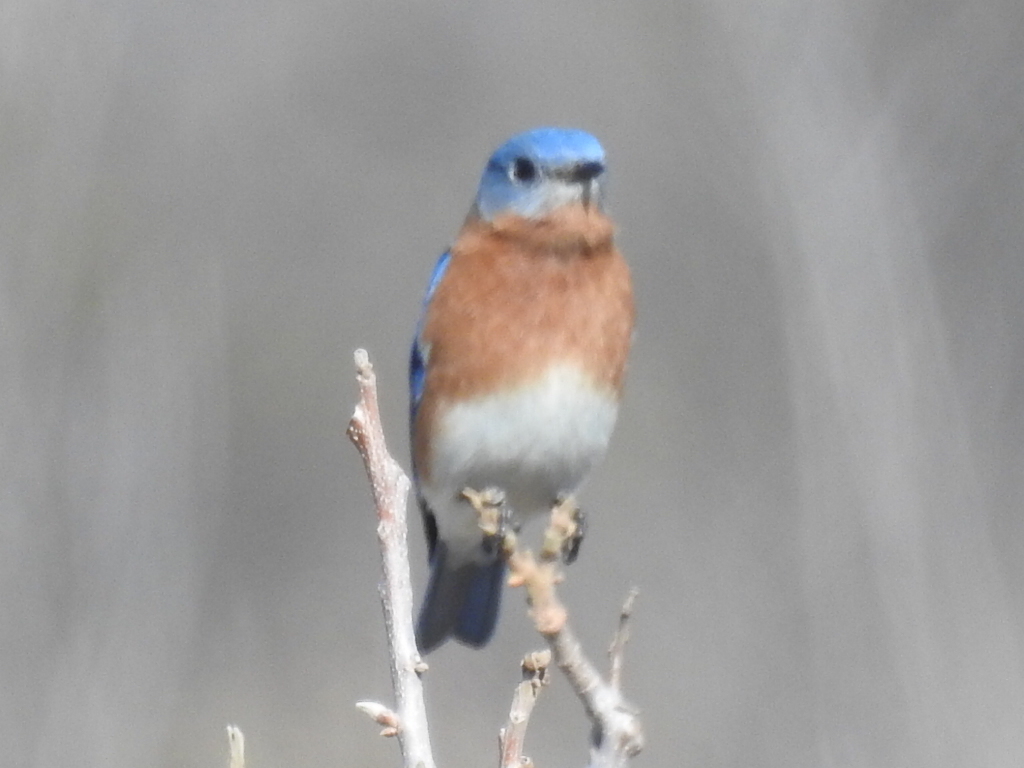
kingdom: Animalia
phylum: Chordata
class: Aves
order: Passeriformes
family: Turdidae
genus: Sialia
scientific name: Sialia sialis
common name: Eastern bluebird
